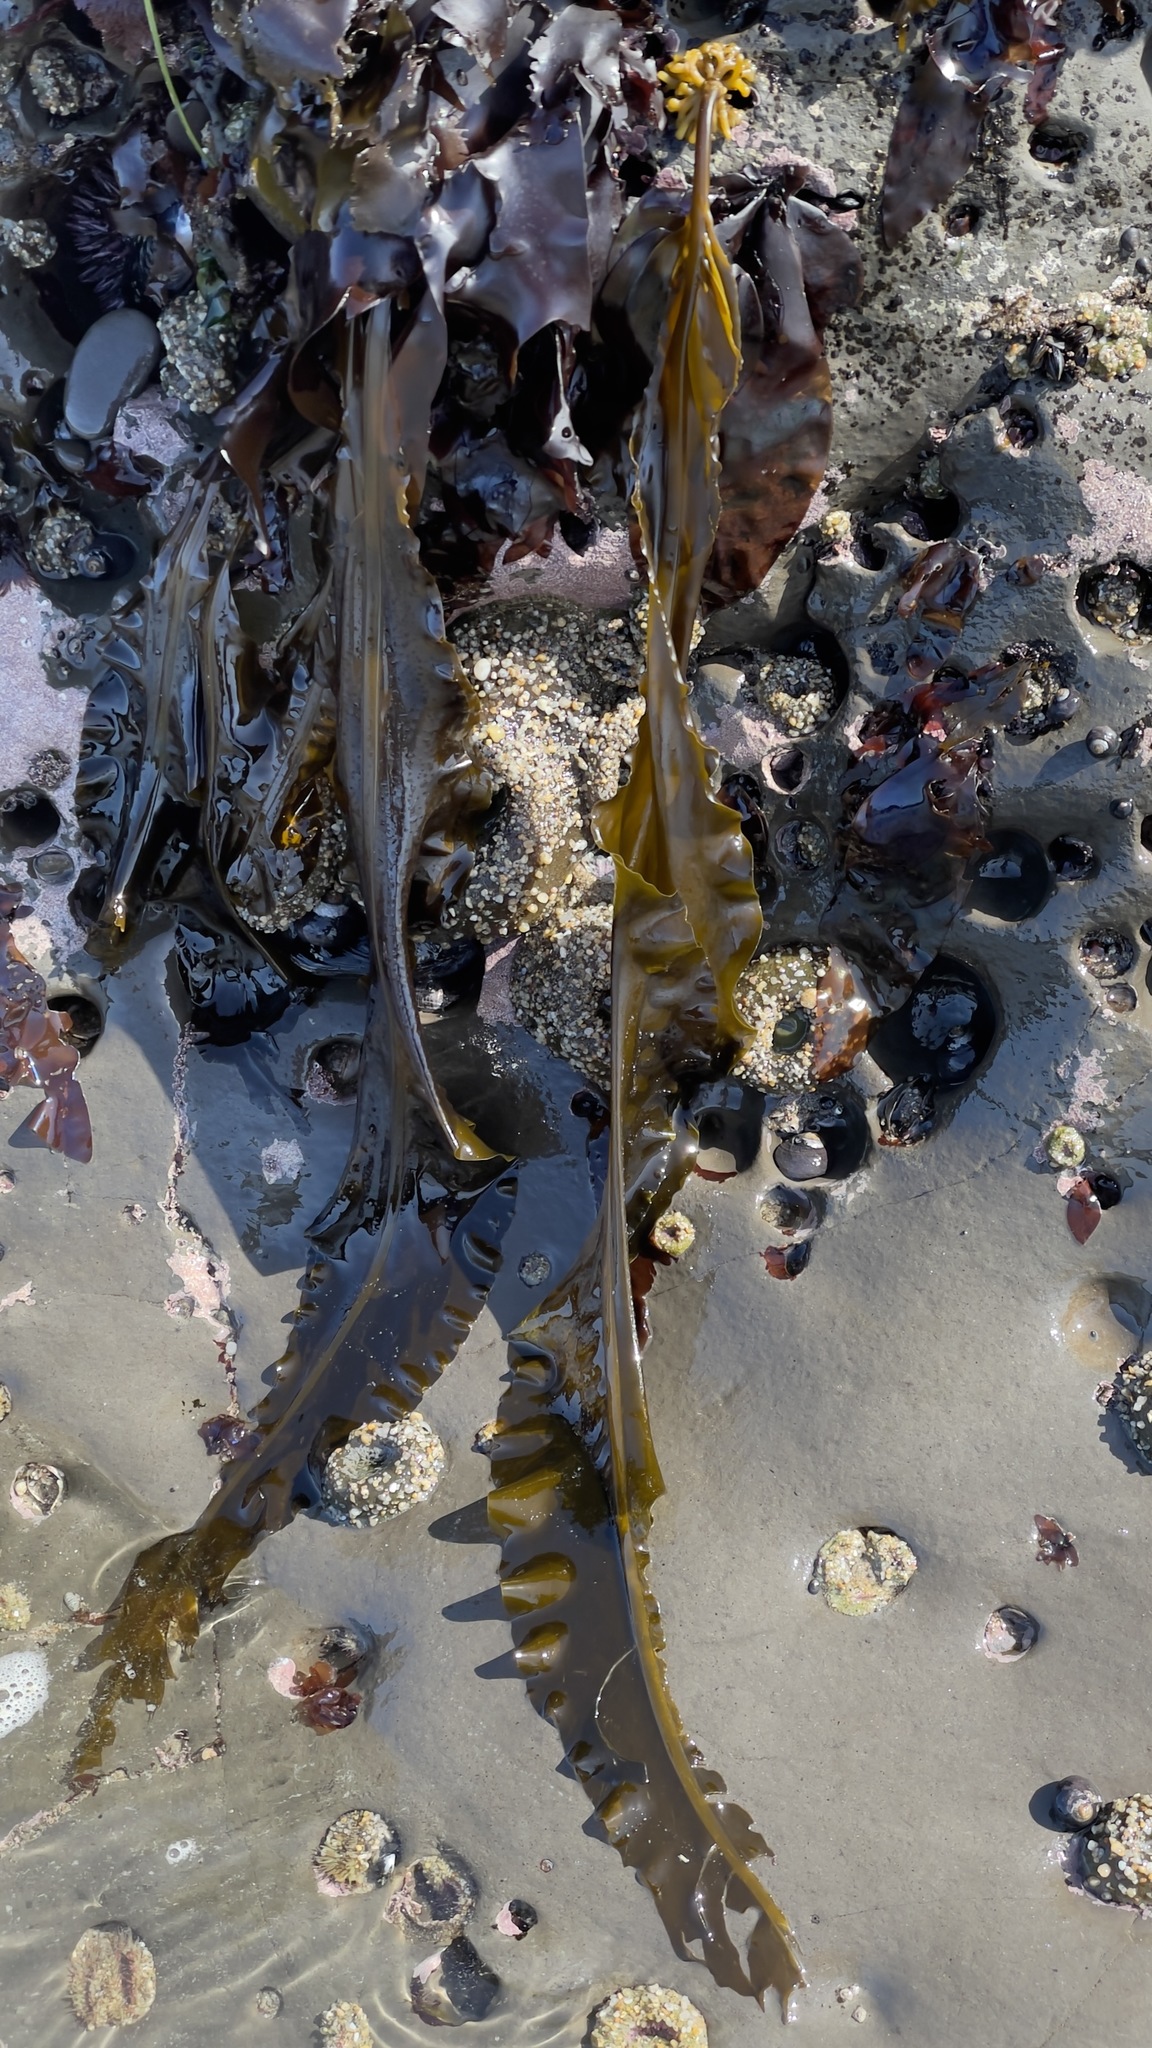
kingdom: Chromista
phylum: Ochrophyta
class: Phaeophyceae
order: Laminariales
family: Alariaceae
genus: Alaria
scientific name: Alaria marginata
